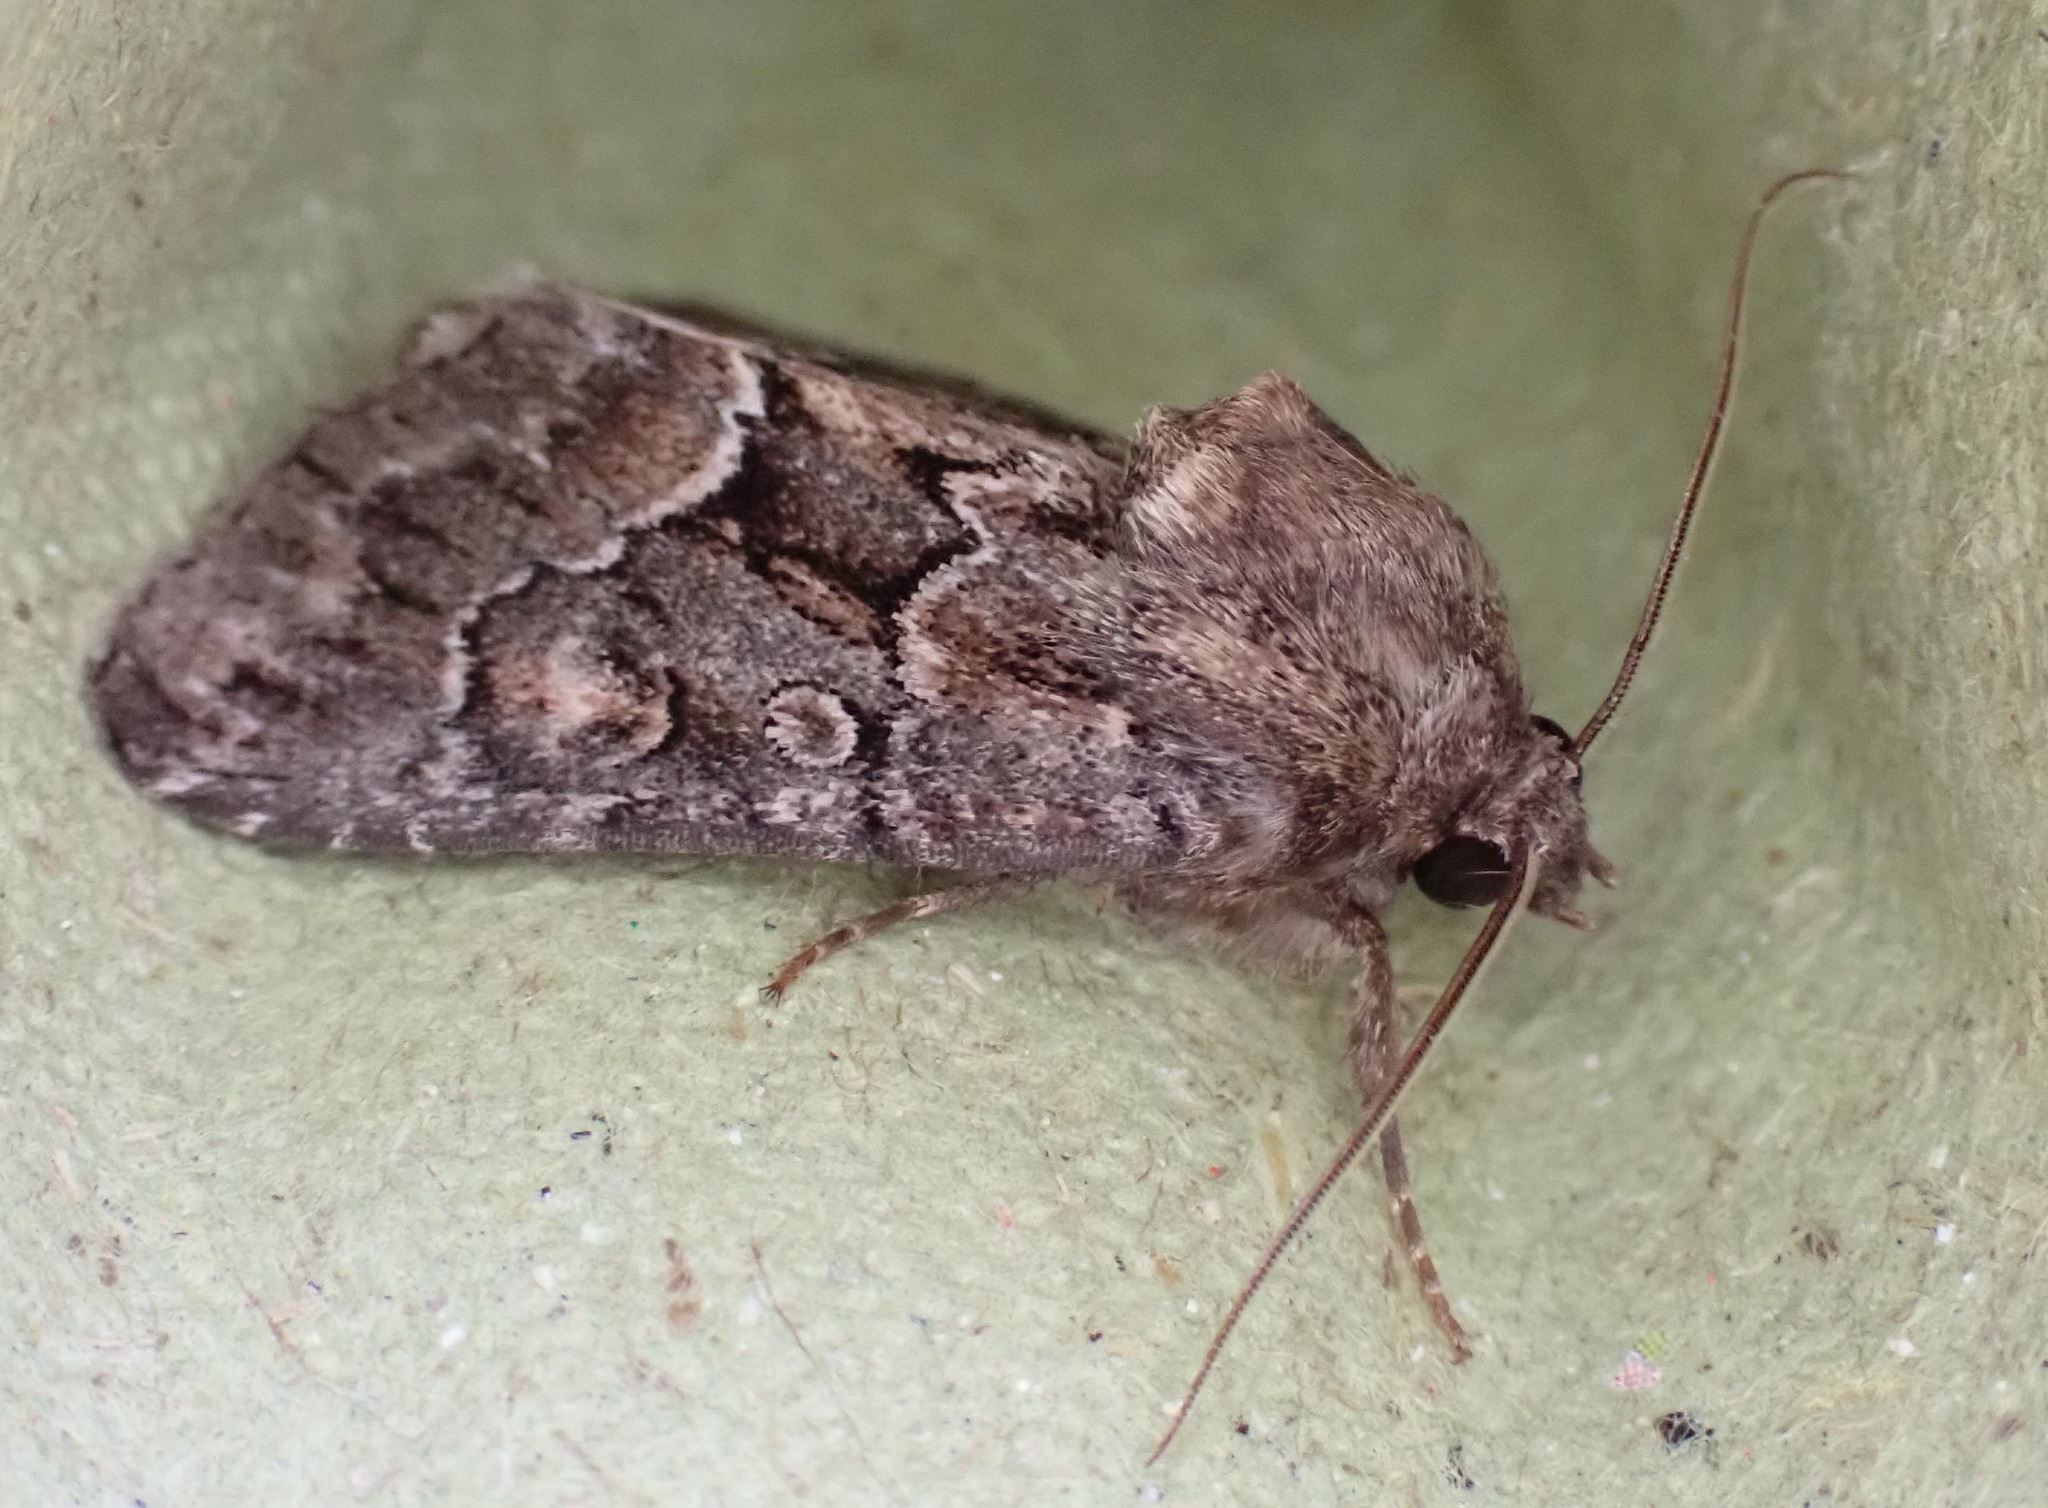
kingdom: Animalia
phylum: Arthropoda
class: Insecta
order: Lepidoptera
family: Noctuidae
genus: Thalpophila
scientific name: Thalpophila matura
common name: Straw underwing
